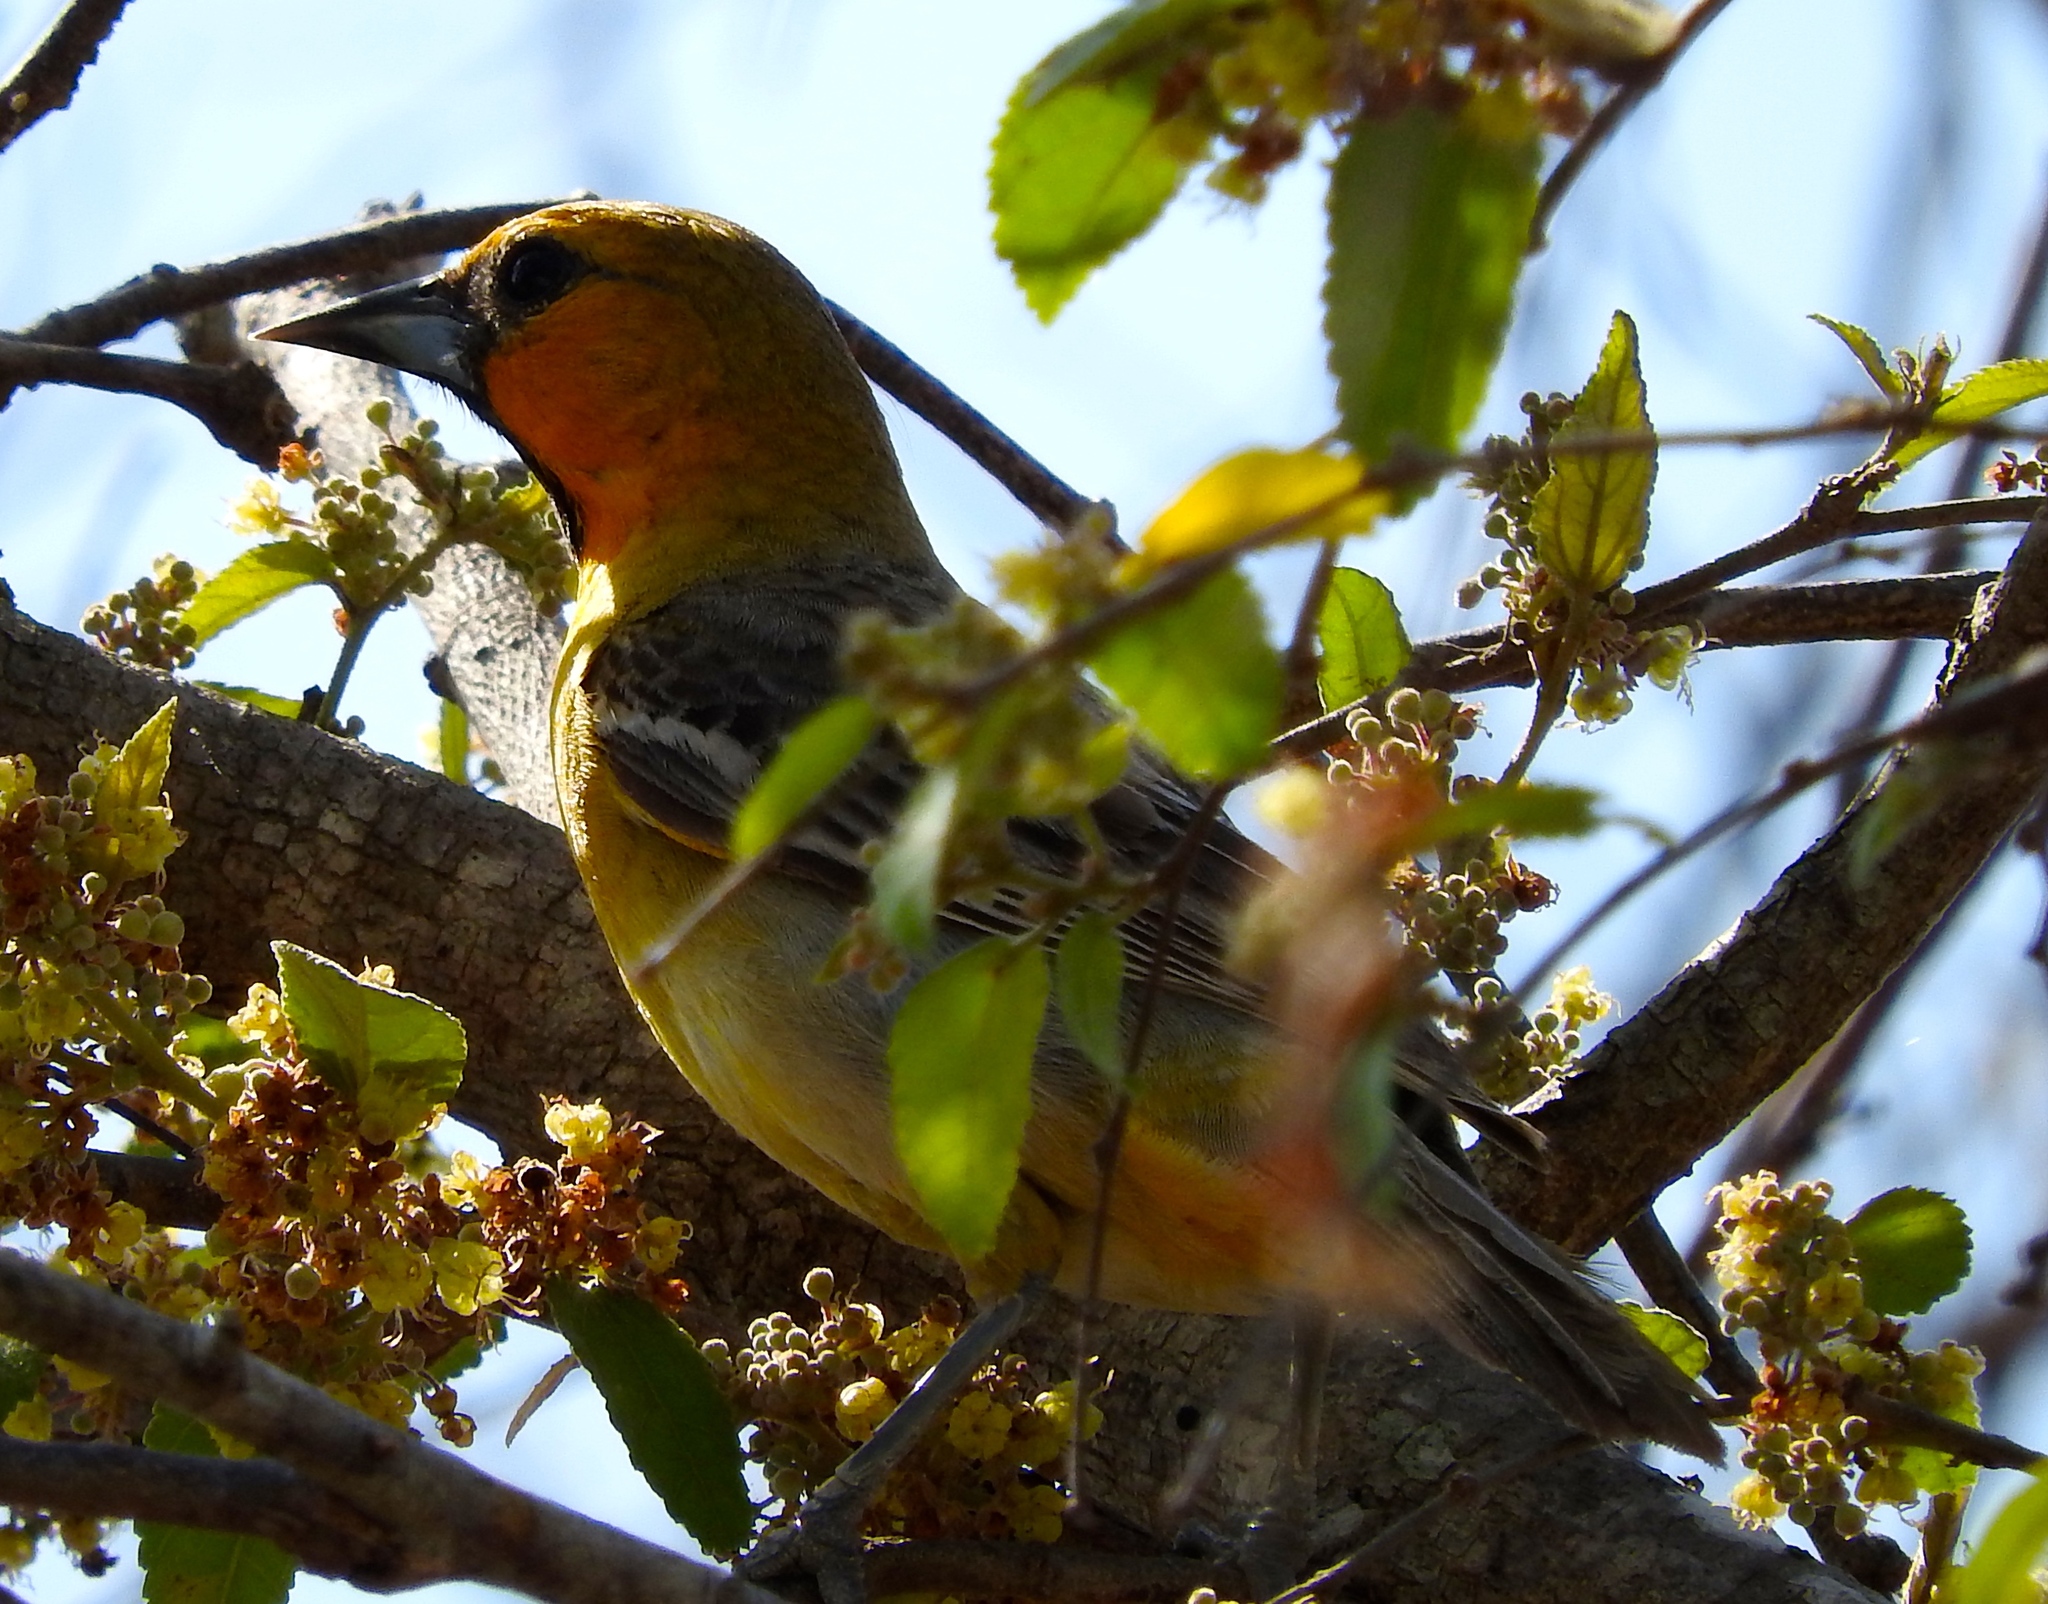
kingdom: Animalia
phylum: Chordata
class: Aves
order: Passeriformes
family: Icteridae
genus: Icterus
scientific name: Icterus pustulatus
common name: Streak-backed oriole
